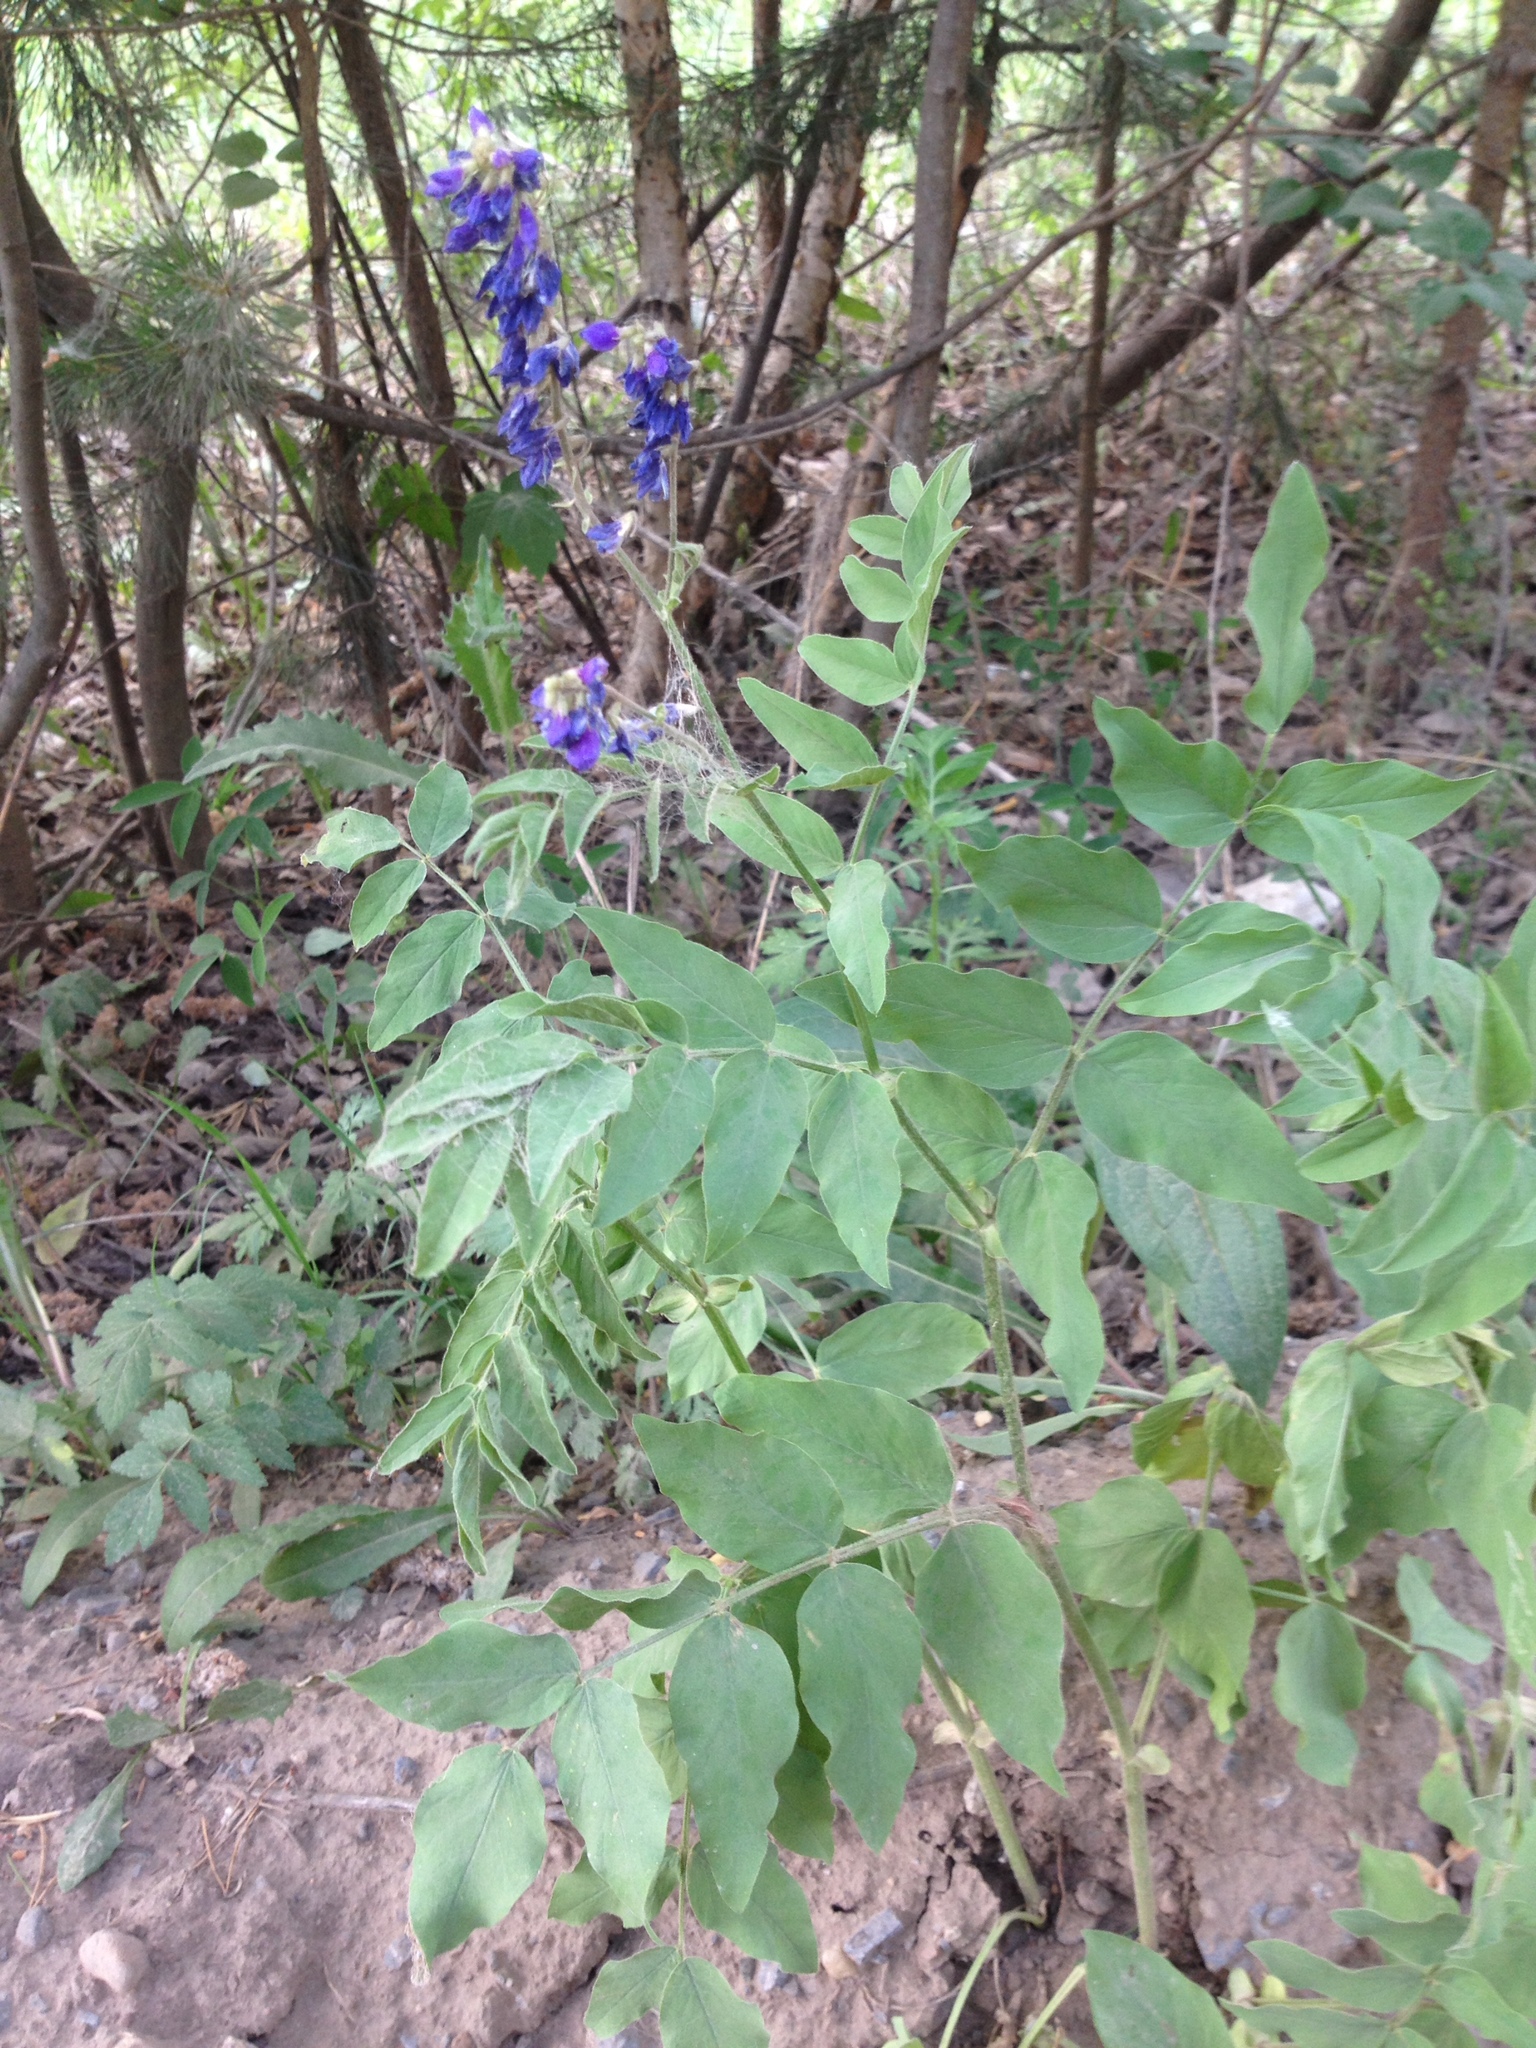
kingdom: Plantae
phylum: Tracheophyta
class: Magnoliopsida
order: Fabales
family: Fabaceae
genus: Galega
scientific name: Galega orientalis
